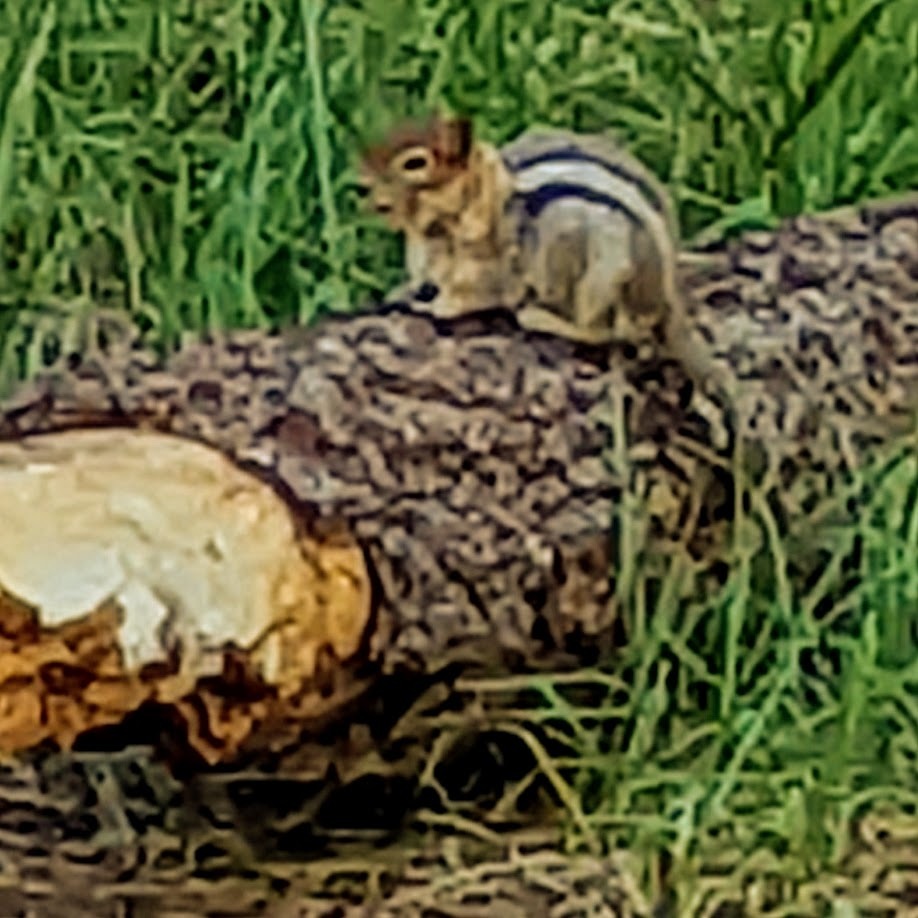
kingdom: Animalia
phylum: Chordata
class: Mammalia
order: Rodentia
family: Sciuridae
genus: Callospermophilus
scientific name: Callospermophilus lateralis
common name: Golden-mantled ground squirrel
